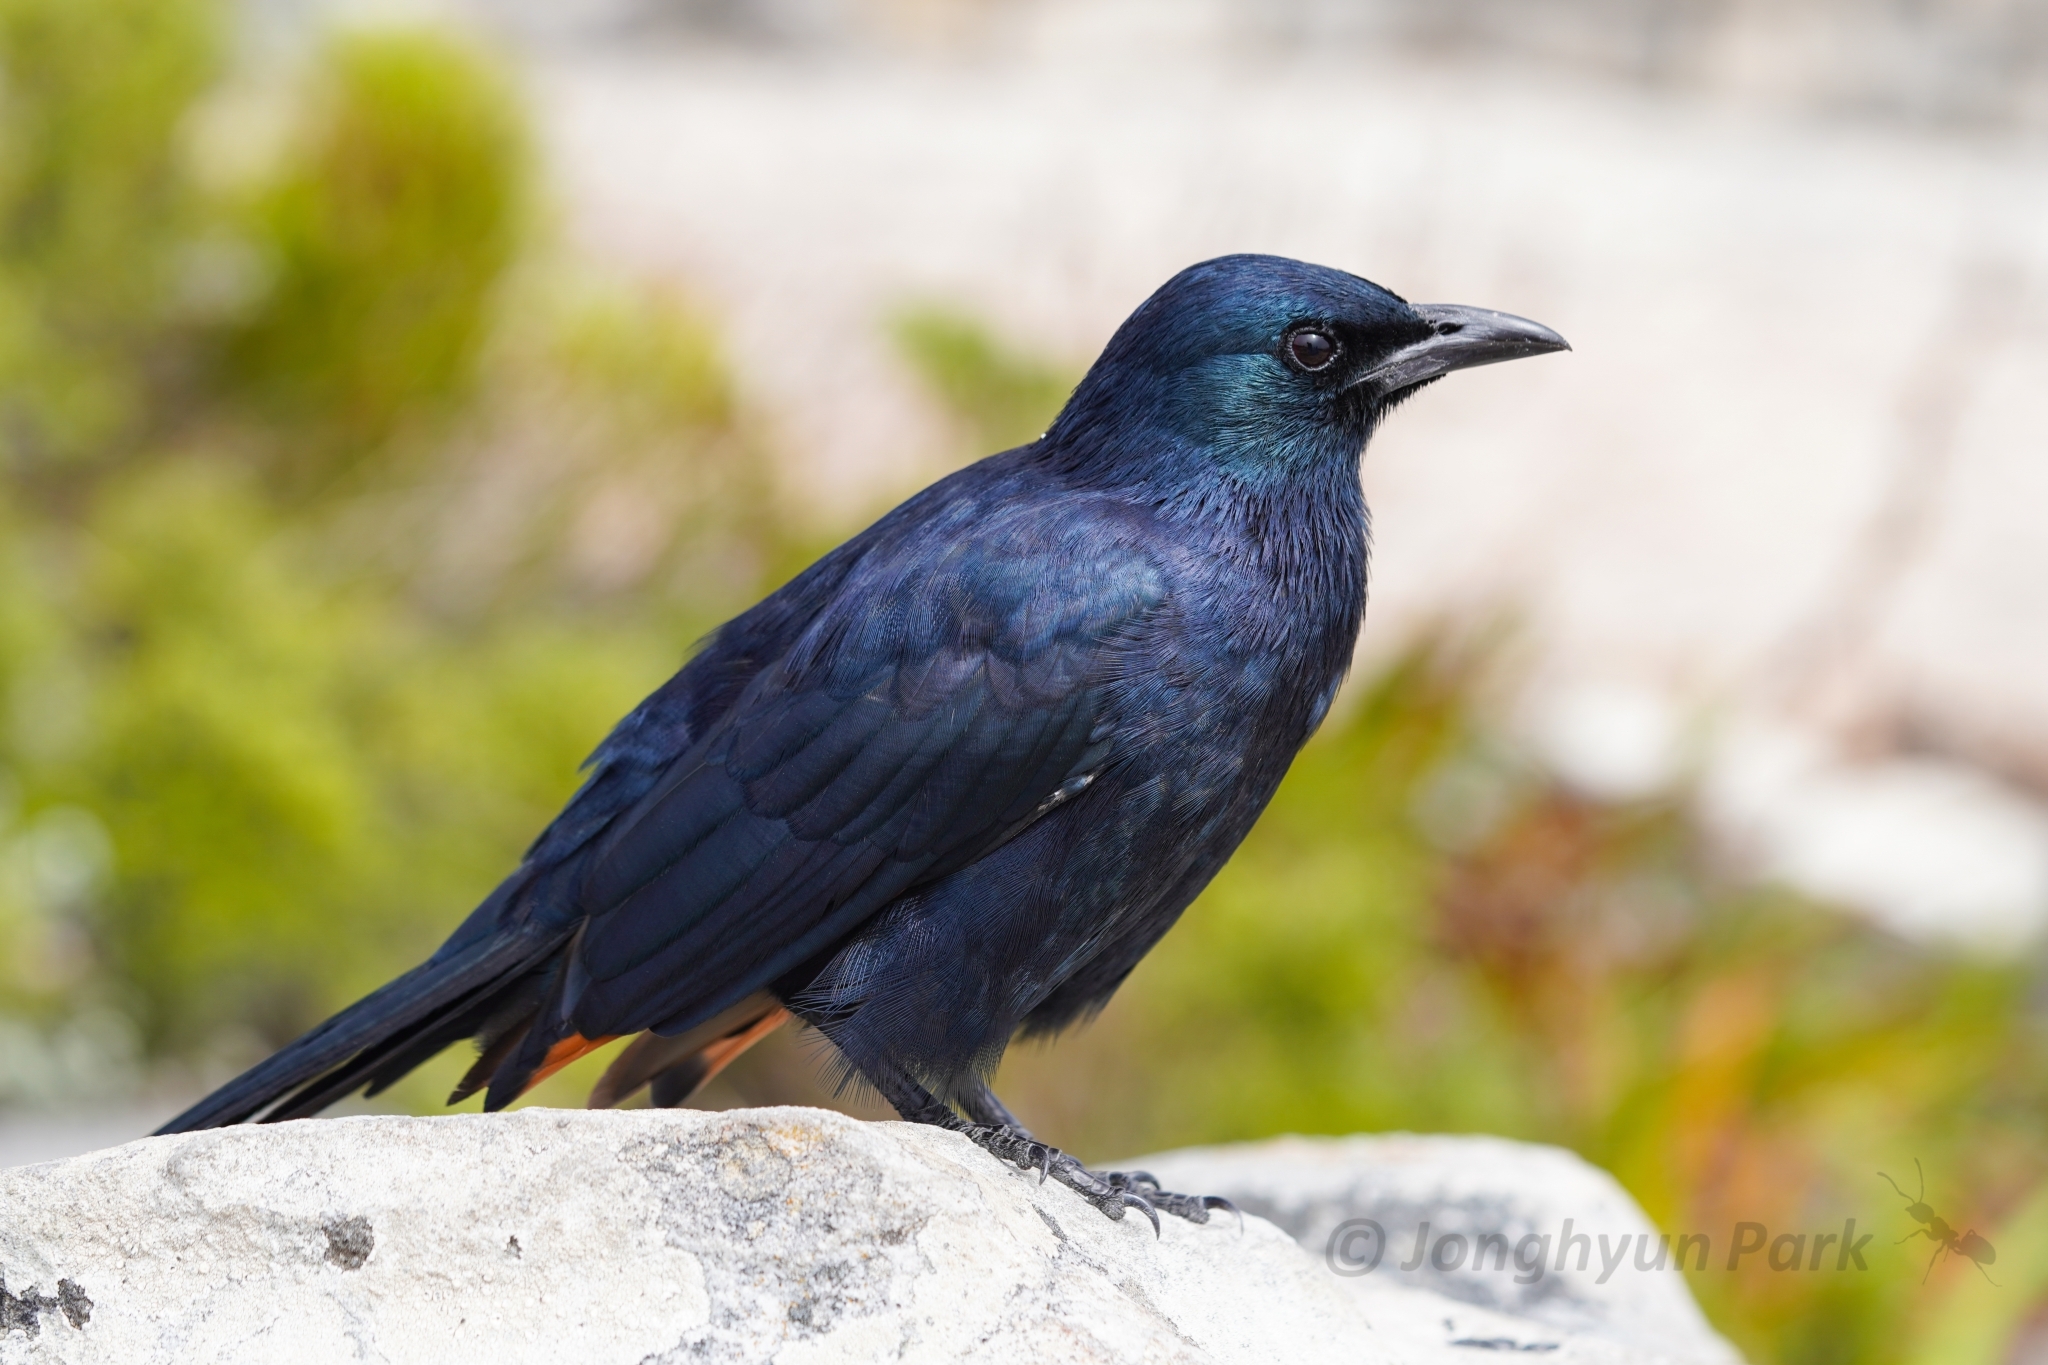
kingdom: Animalia
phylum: Chordata
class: Aves
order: Passeriformes
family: Sturnidae
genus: Onychognathus
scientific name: Onychognathus morio
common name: Red-winged starling
